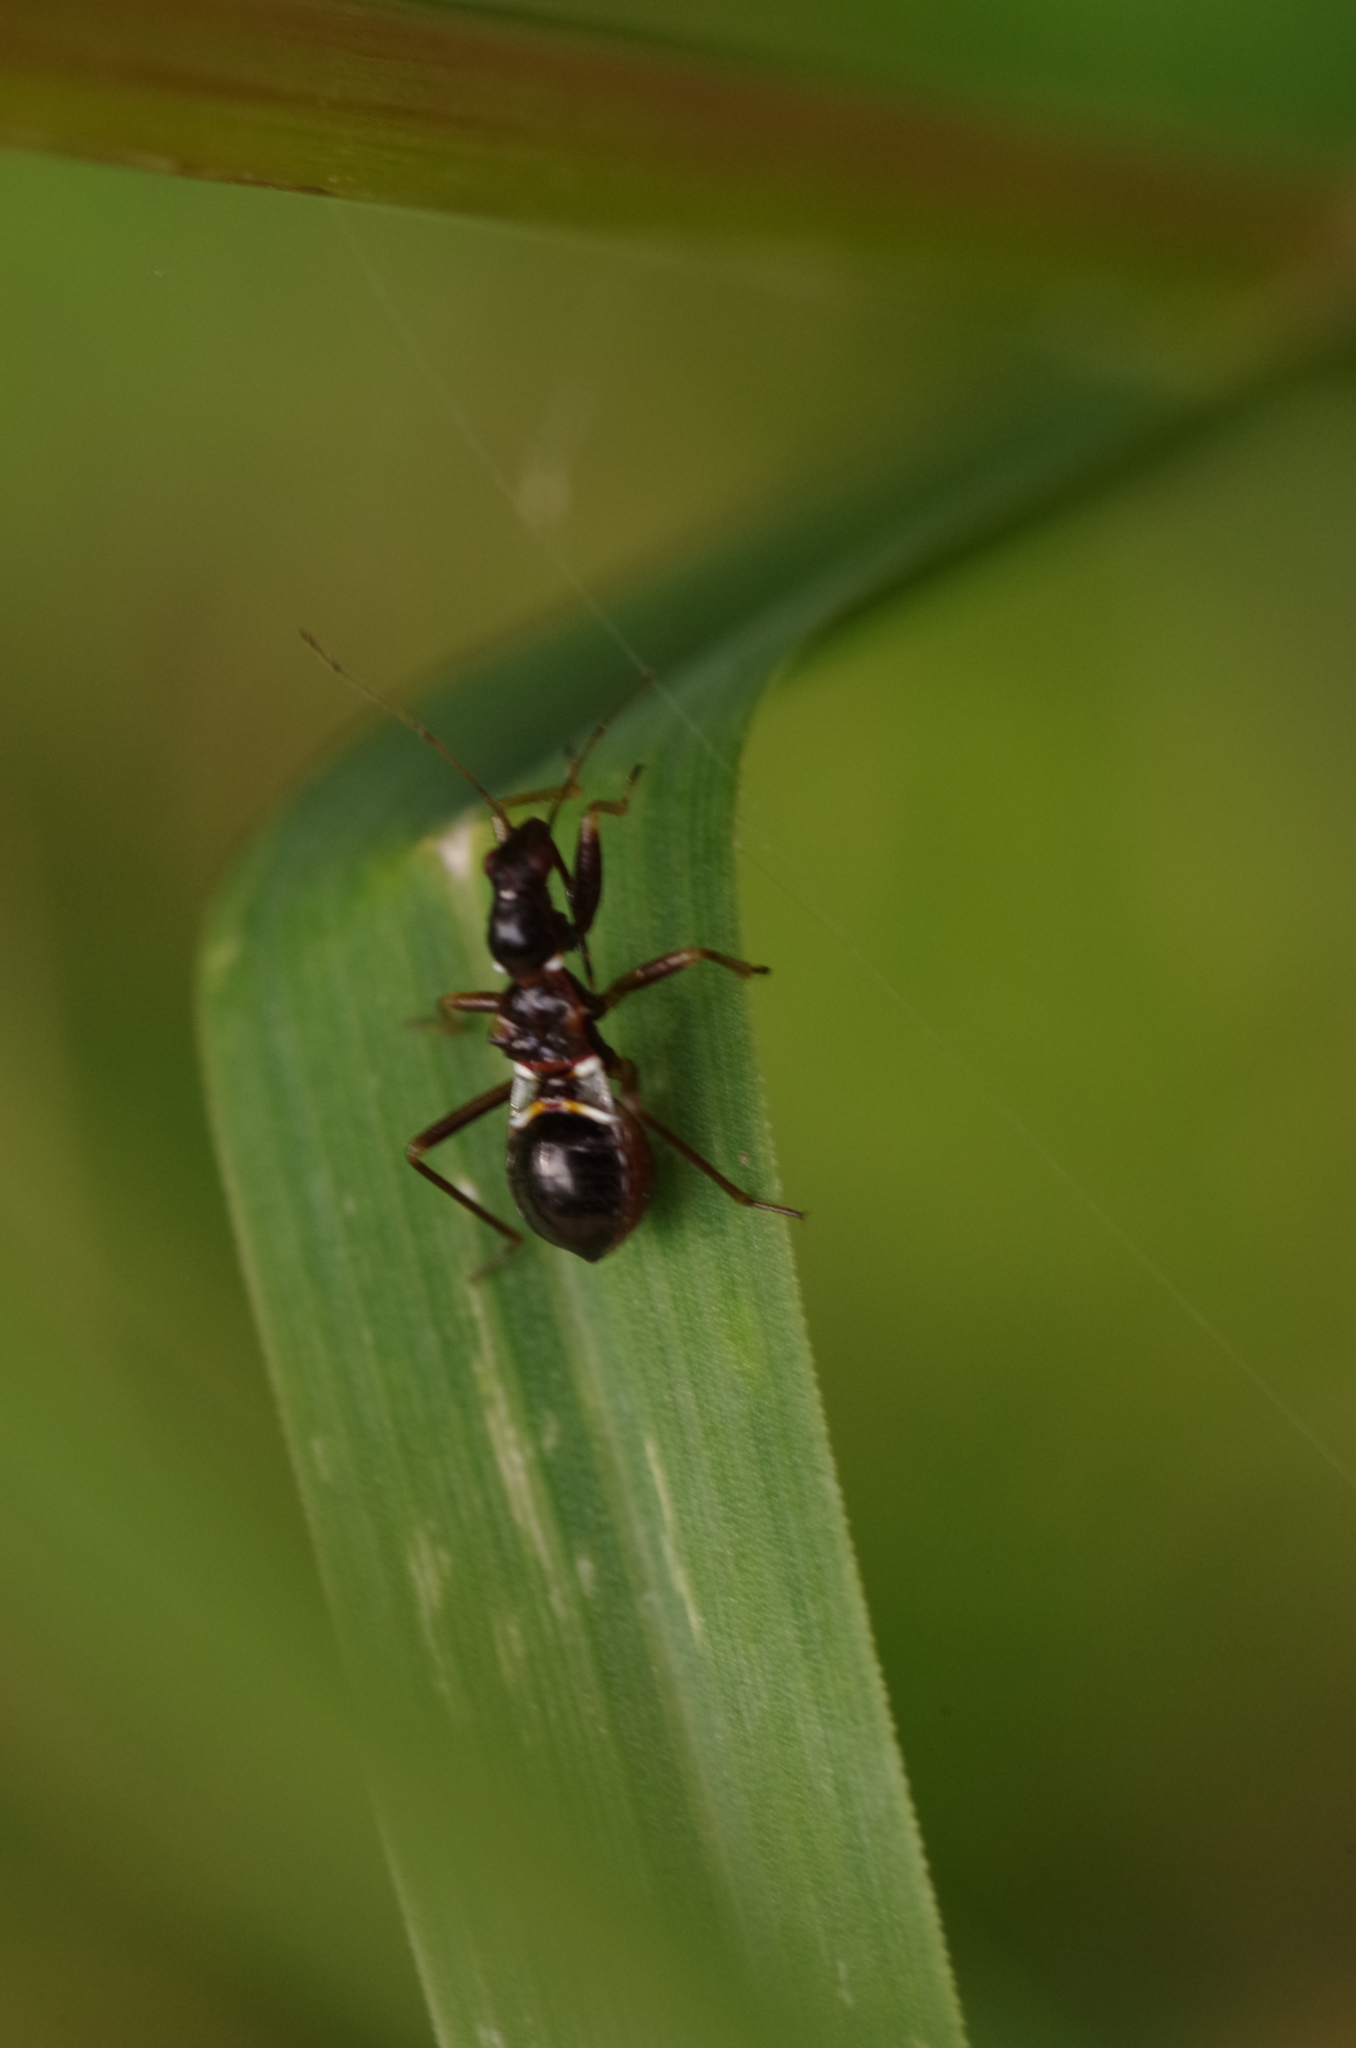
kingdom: Animalia
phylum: Arthropoda
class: Insecta
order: Hemiptera
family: Nabidae
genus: Himacerus
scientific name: Himacerus mirmicoides
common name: Ant damsel bug
